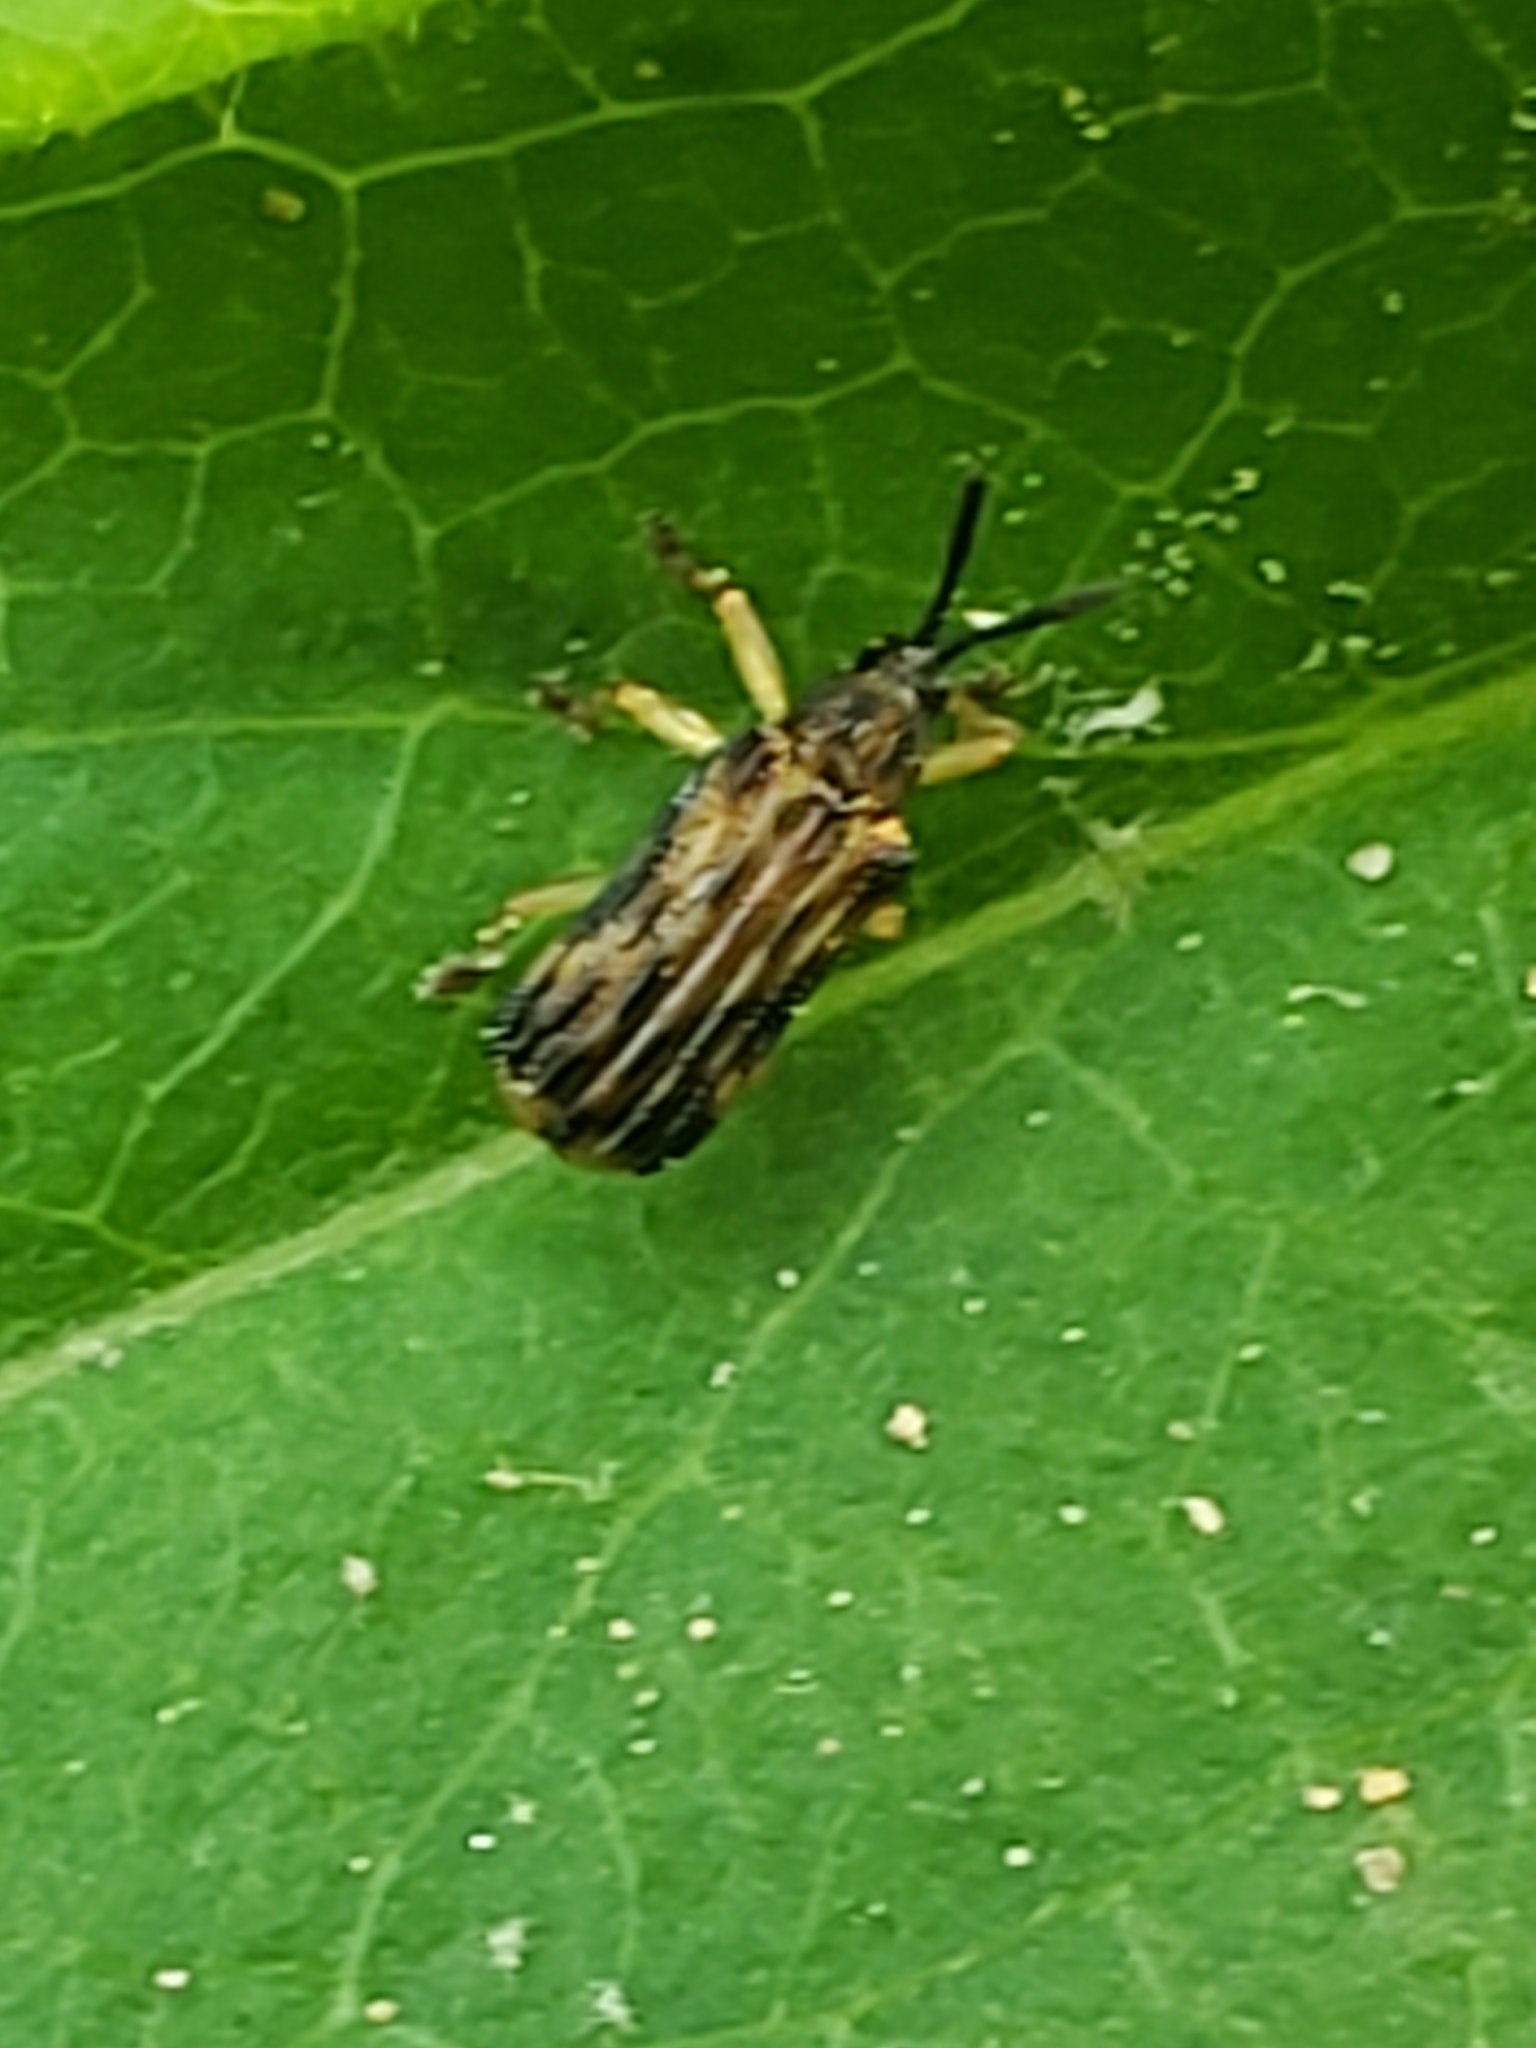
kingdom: Animalia
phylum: Arthropoda
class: Insecta
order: Coleoptera
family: Chrysomelidae
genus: Sumitrosis
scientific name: Sumitrosis inaequalis
